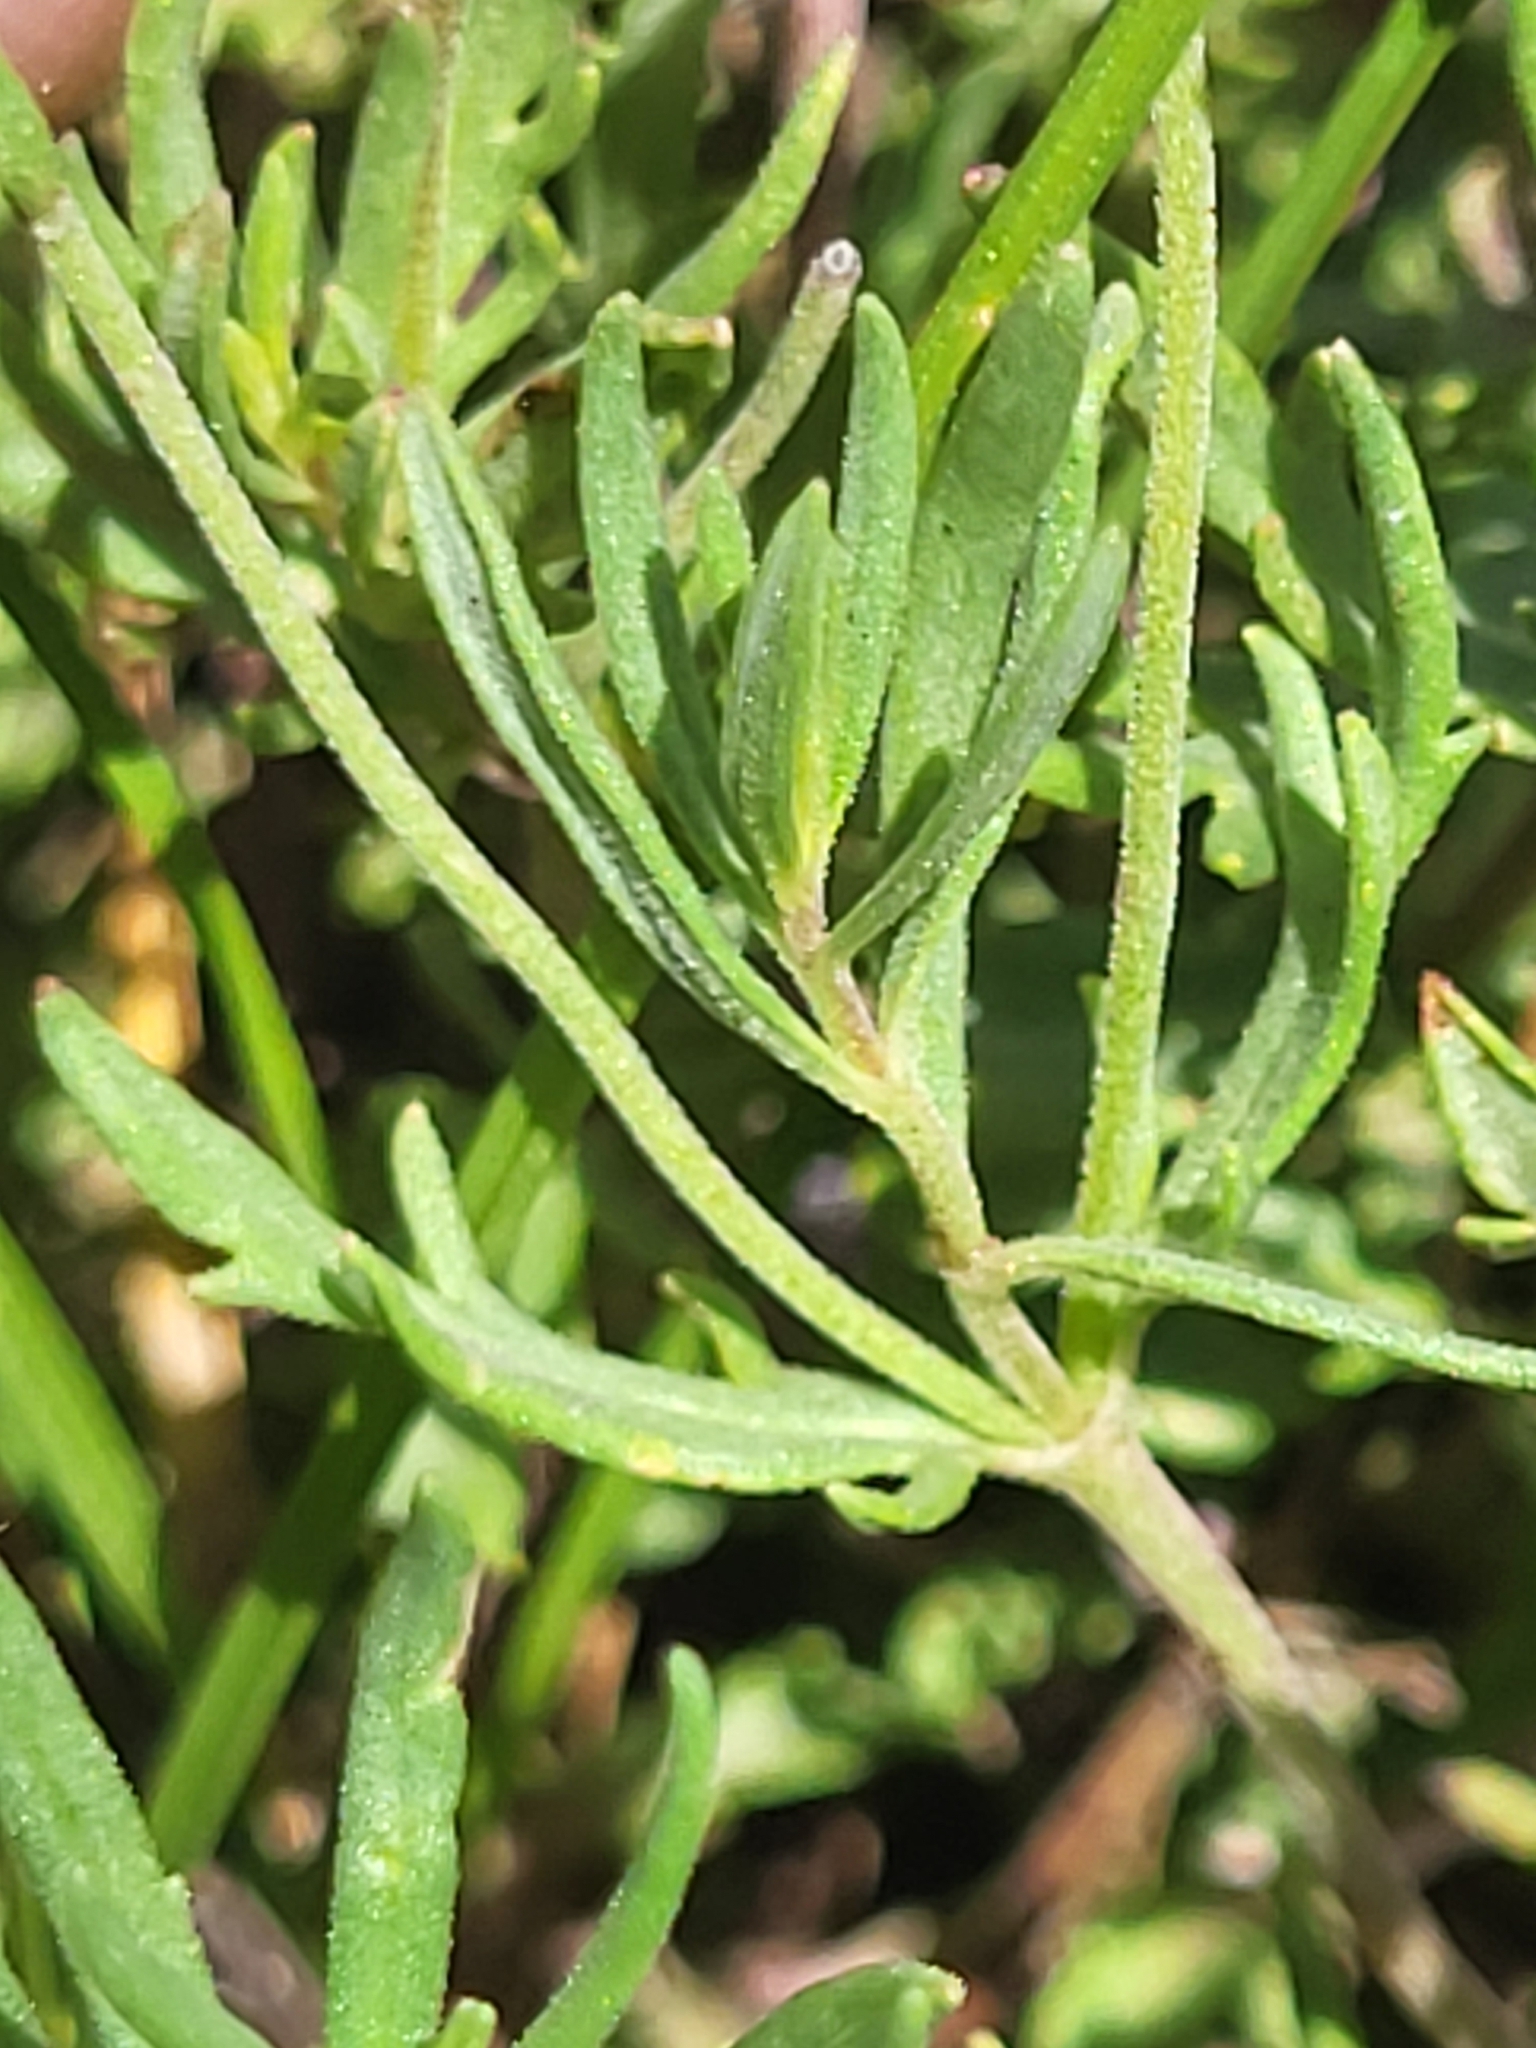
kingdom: Plantae
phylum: Tracheophyta
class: Magnoliopsida
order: Lamiales
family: Plantaginaceae
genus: Veronica
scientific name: Veronica multifida
